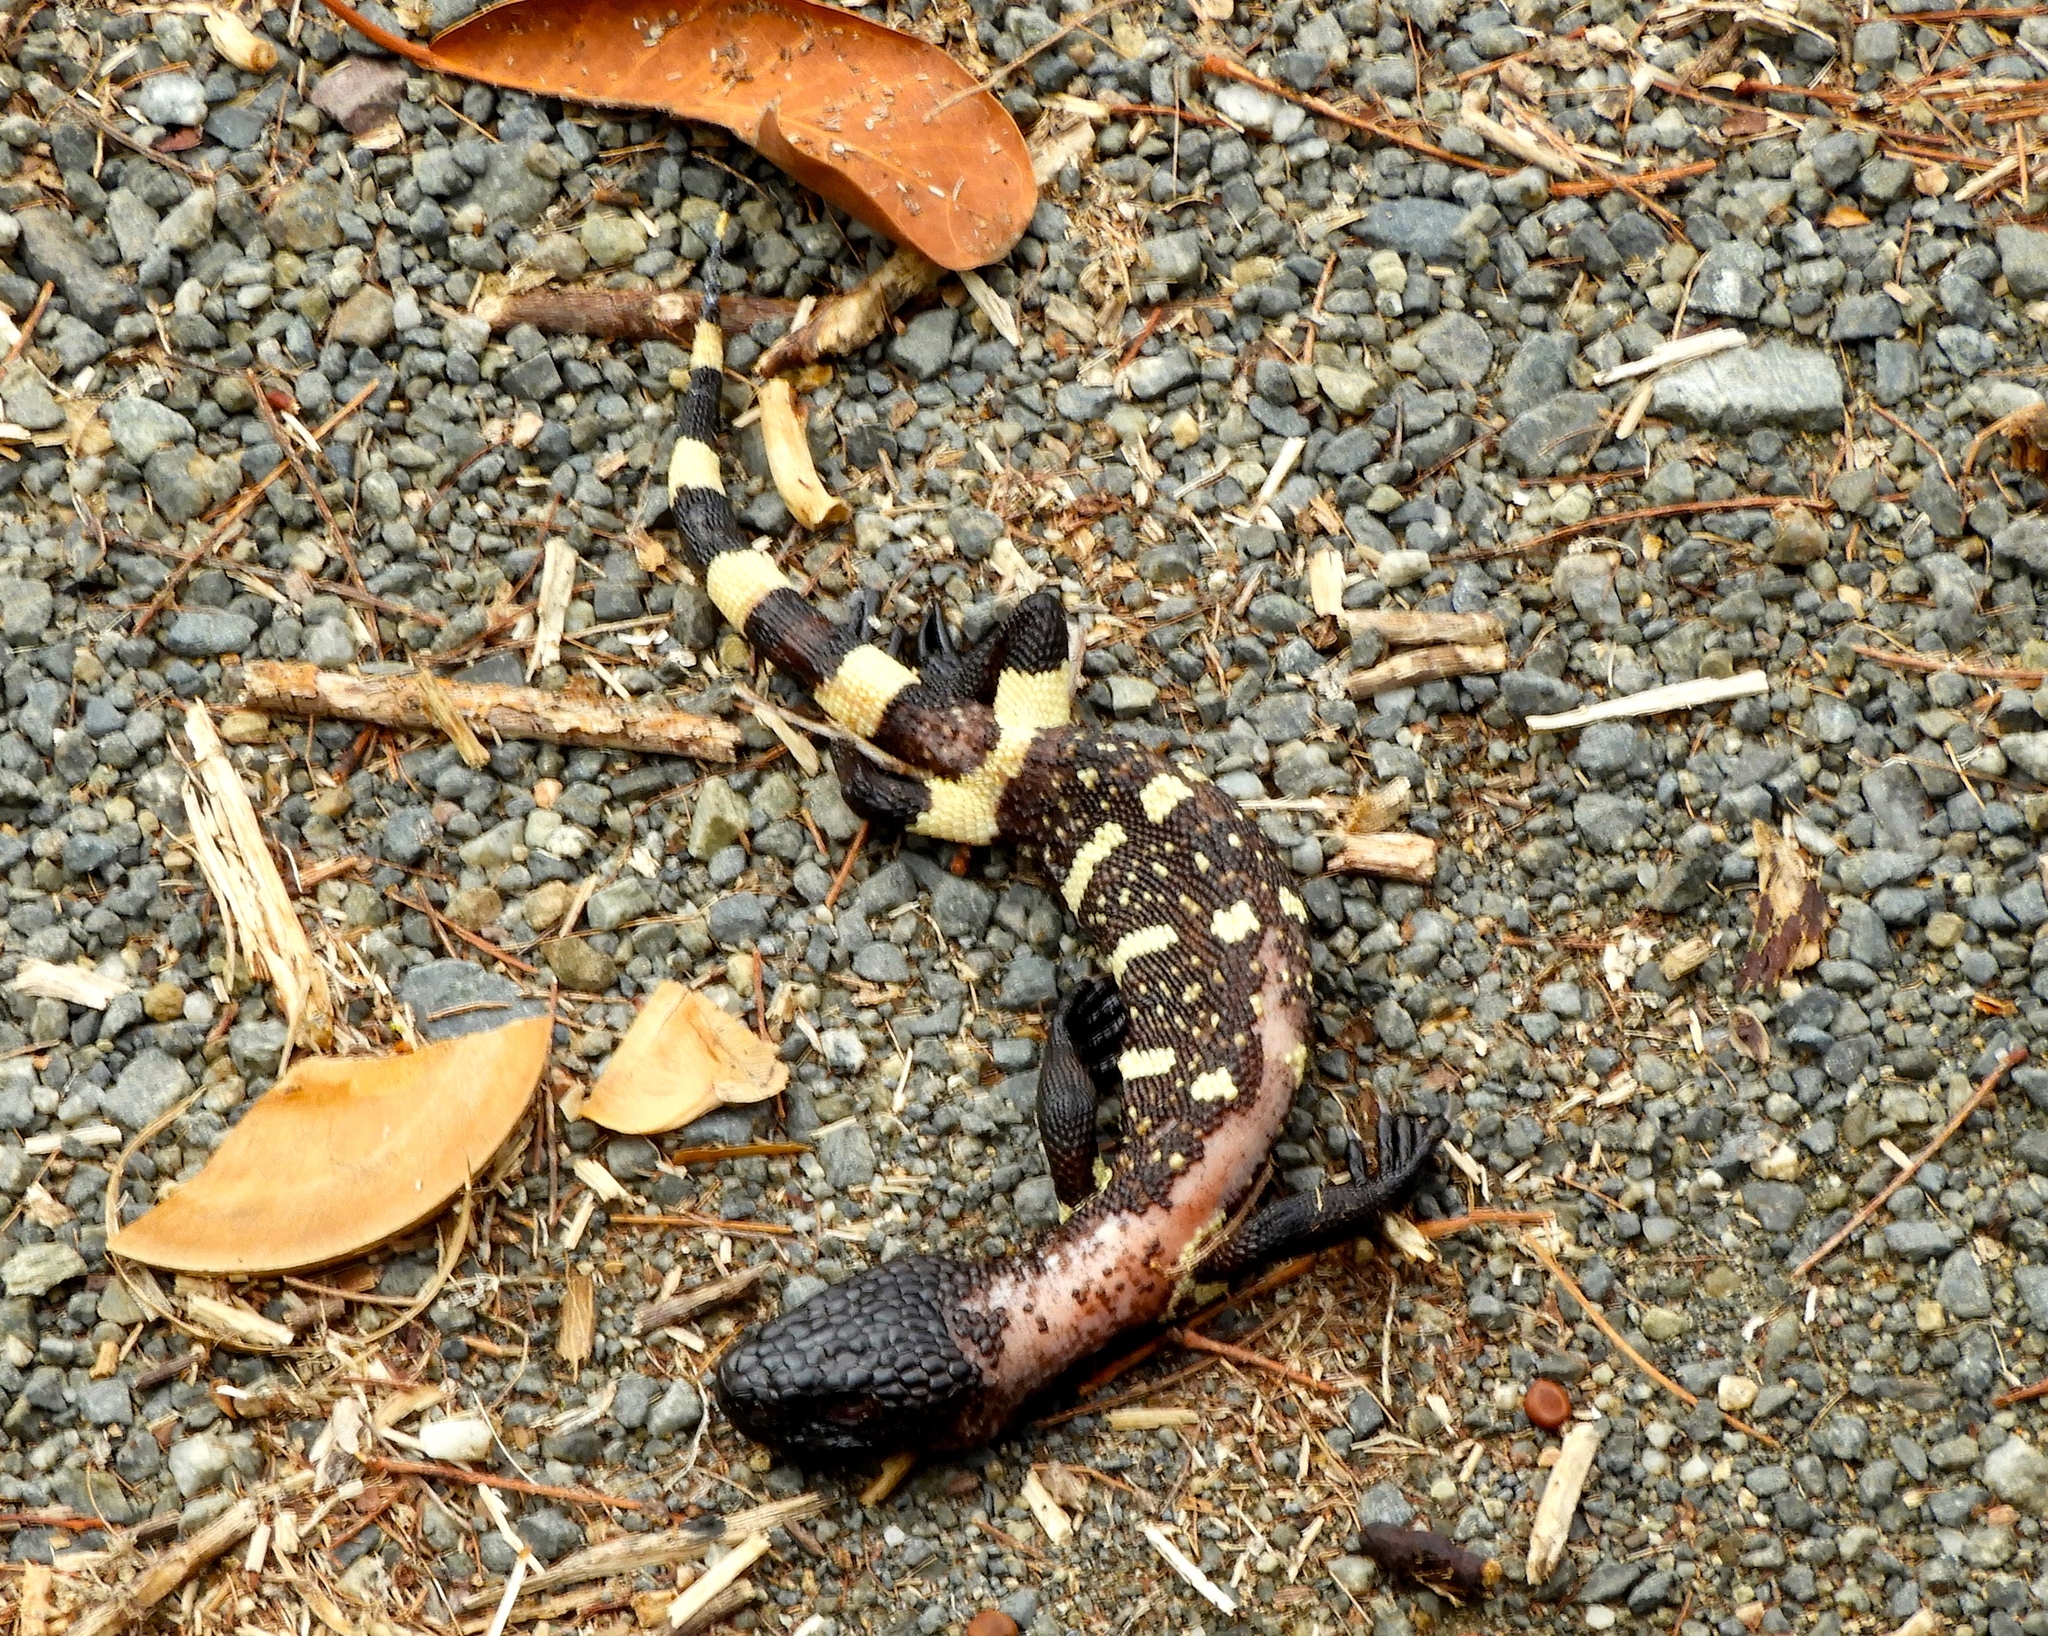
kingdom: Animalia
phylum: Chordata
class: Squamata
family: Helodermatidae
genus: Heloderma
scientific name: Heloderma horridum
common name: Mexican beaded lizard
